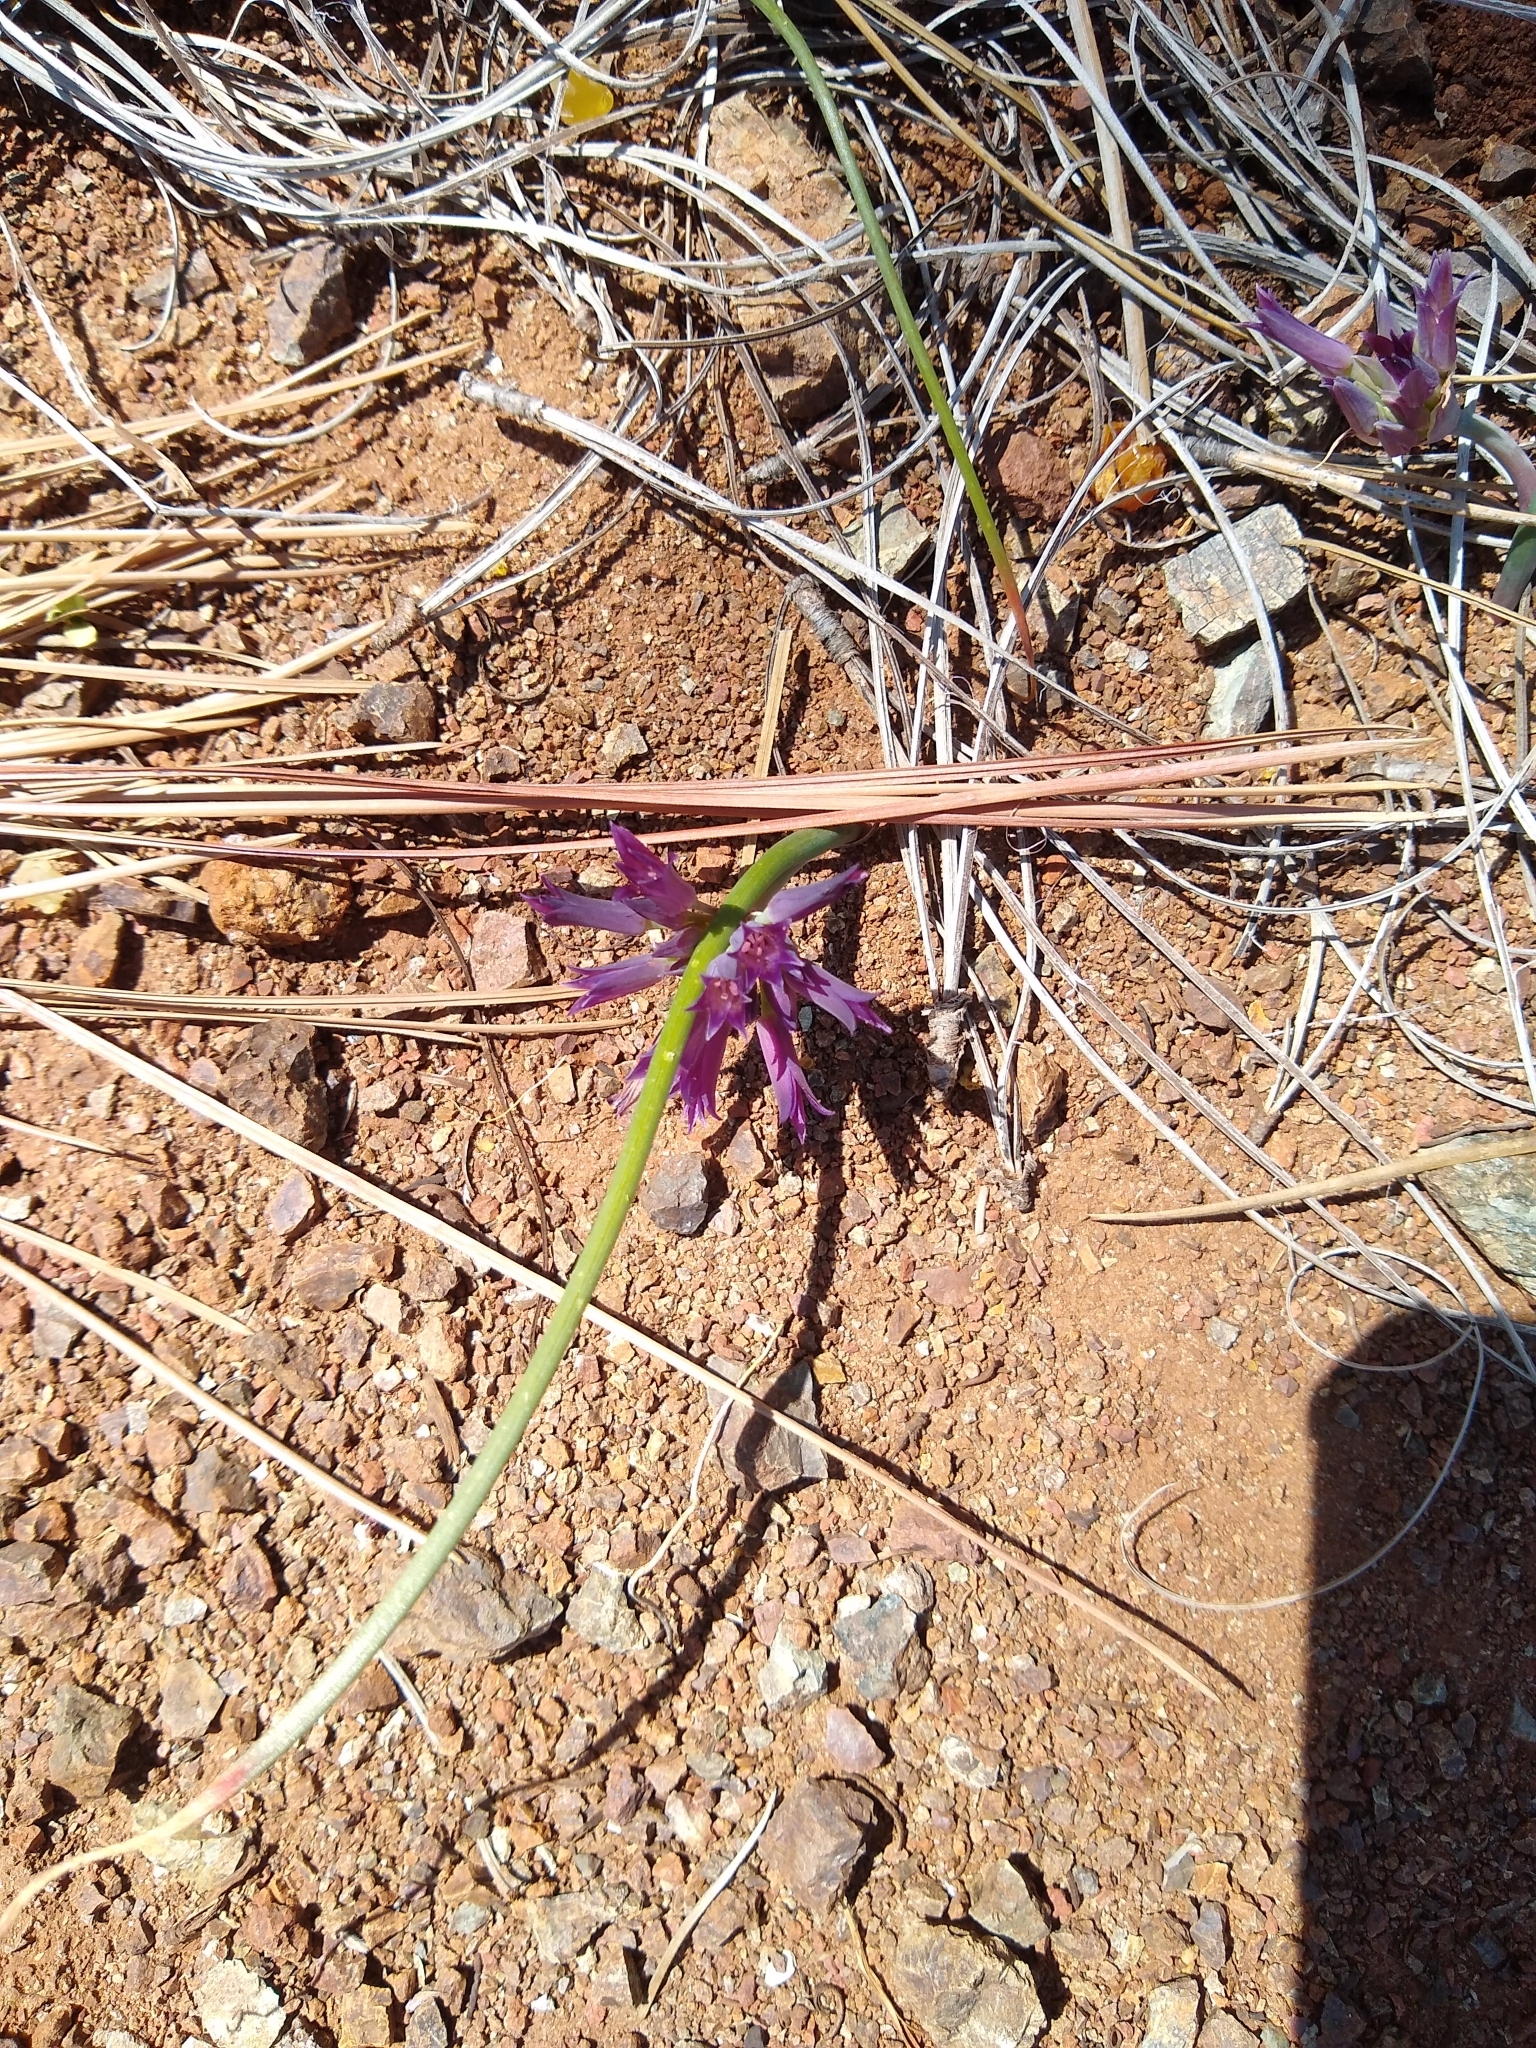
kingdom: Plantae
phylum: Tracheophyta
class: Liliopsida
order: Asparagales
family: Amaryllidaceae
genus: Allium
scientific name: Allium sharsmithiae
